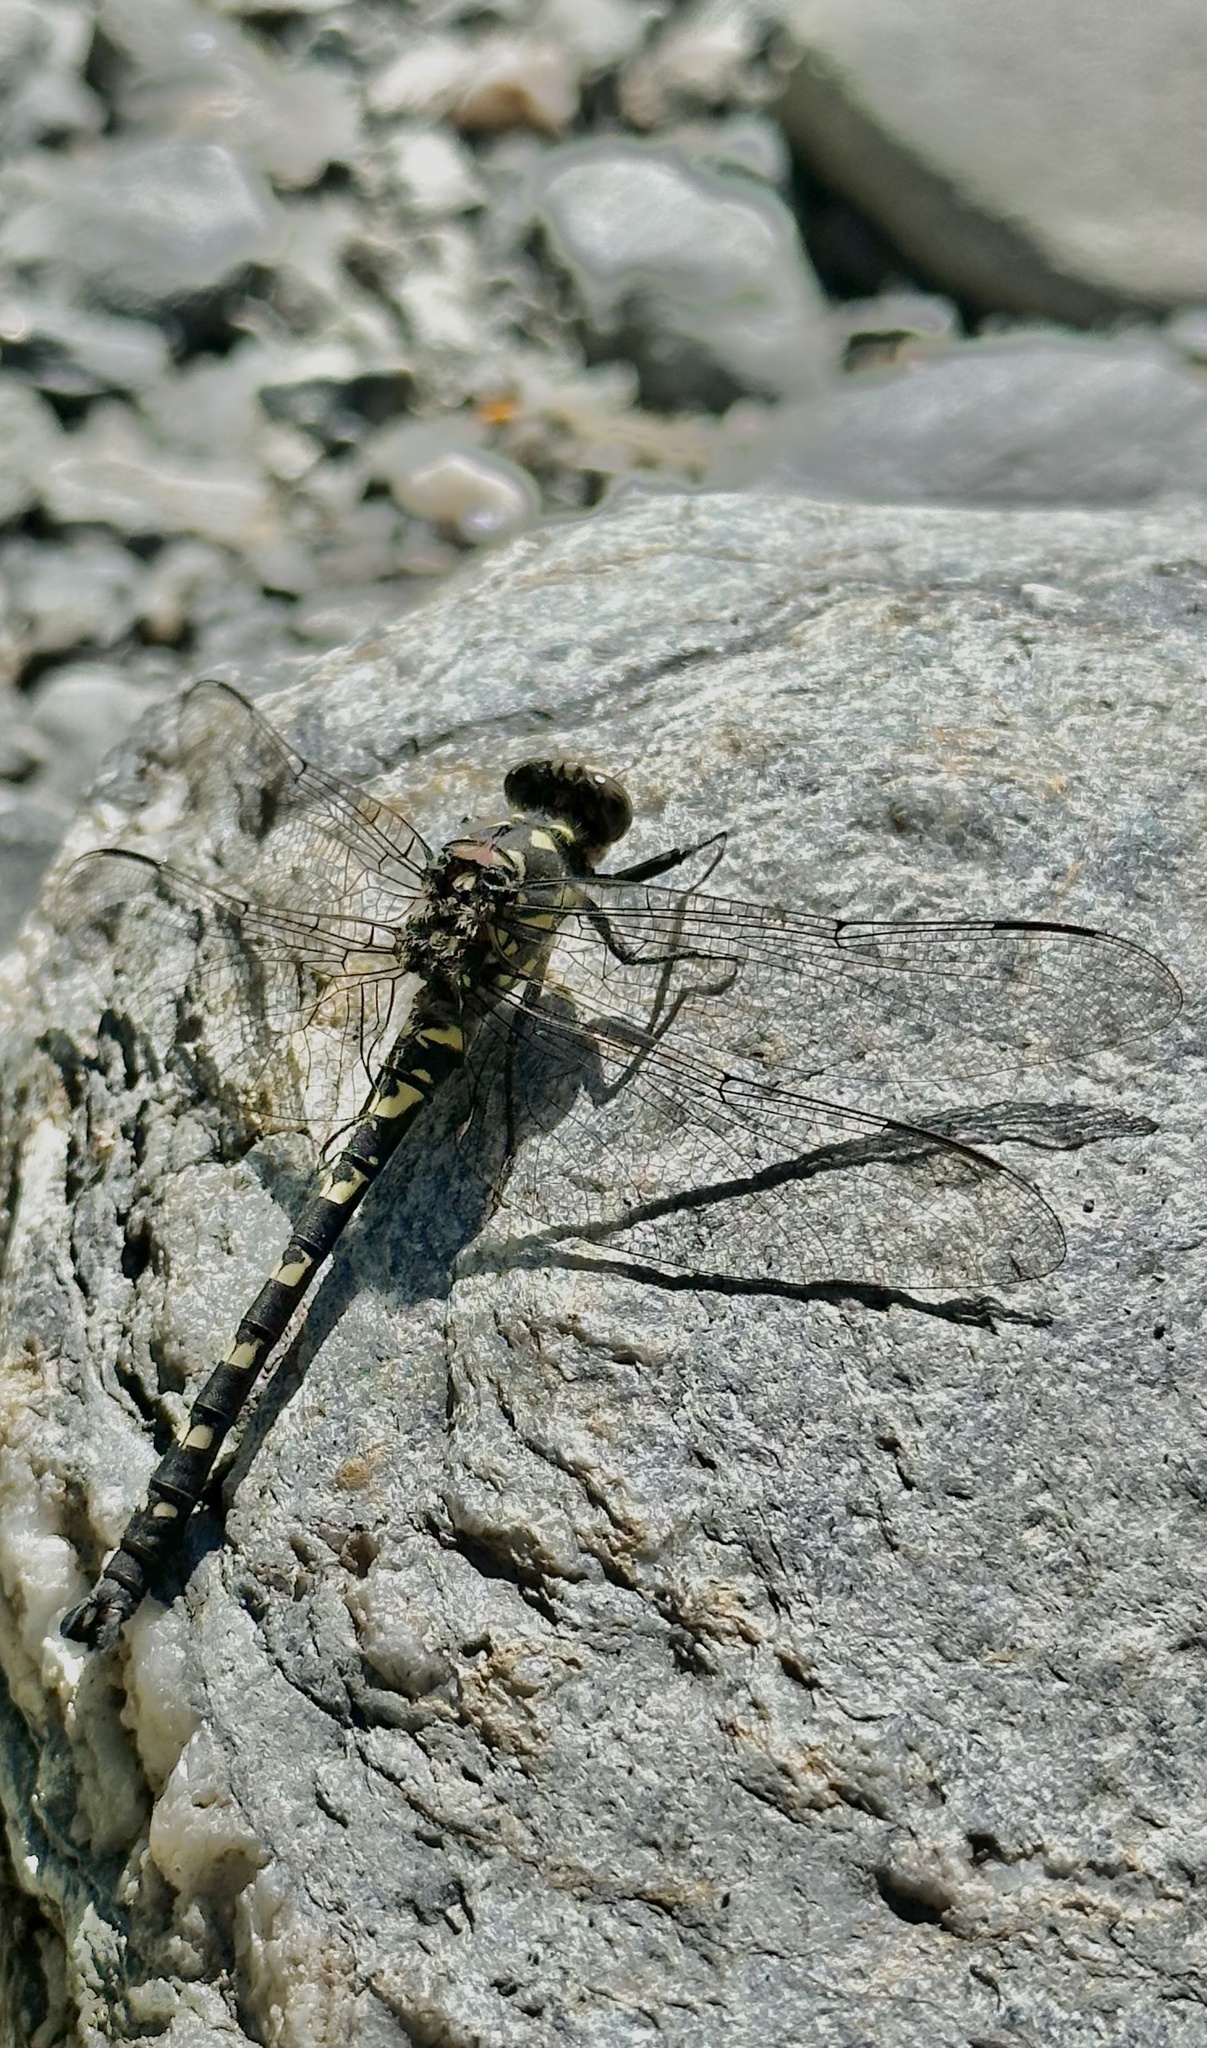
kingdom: Animalia
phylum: Arthropoda
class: Insecta
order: Odonata
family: Petaluridae
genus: Tanypteryx
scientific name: Tanypteryx hageni
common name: Black petaltail
